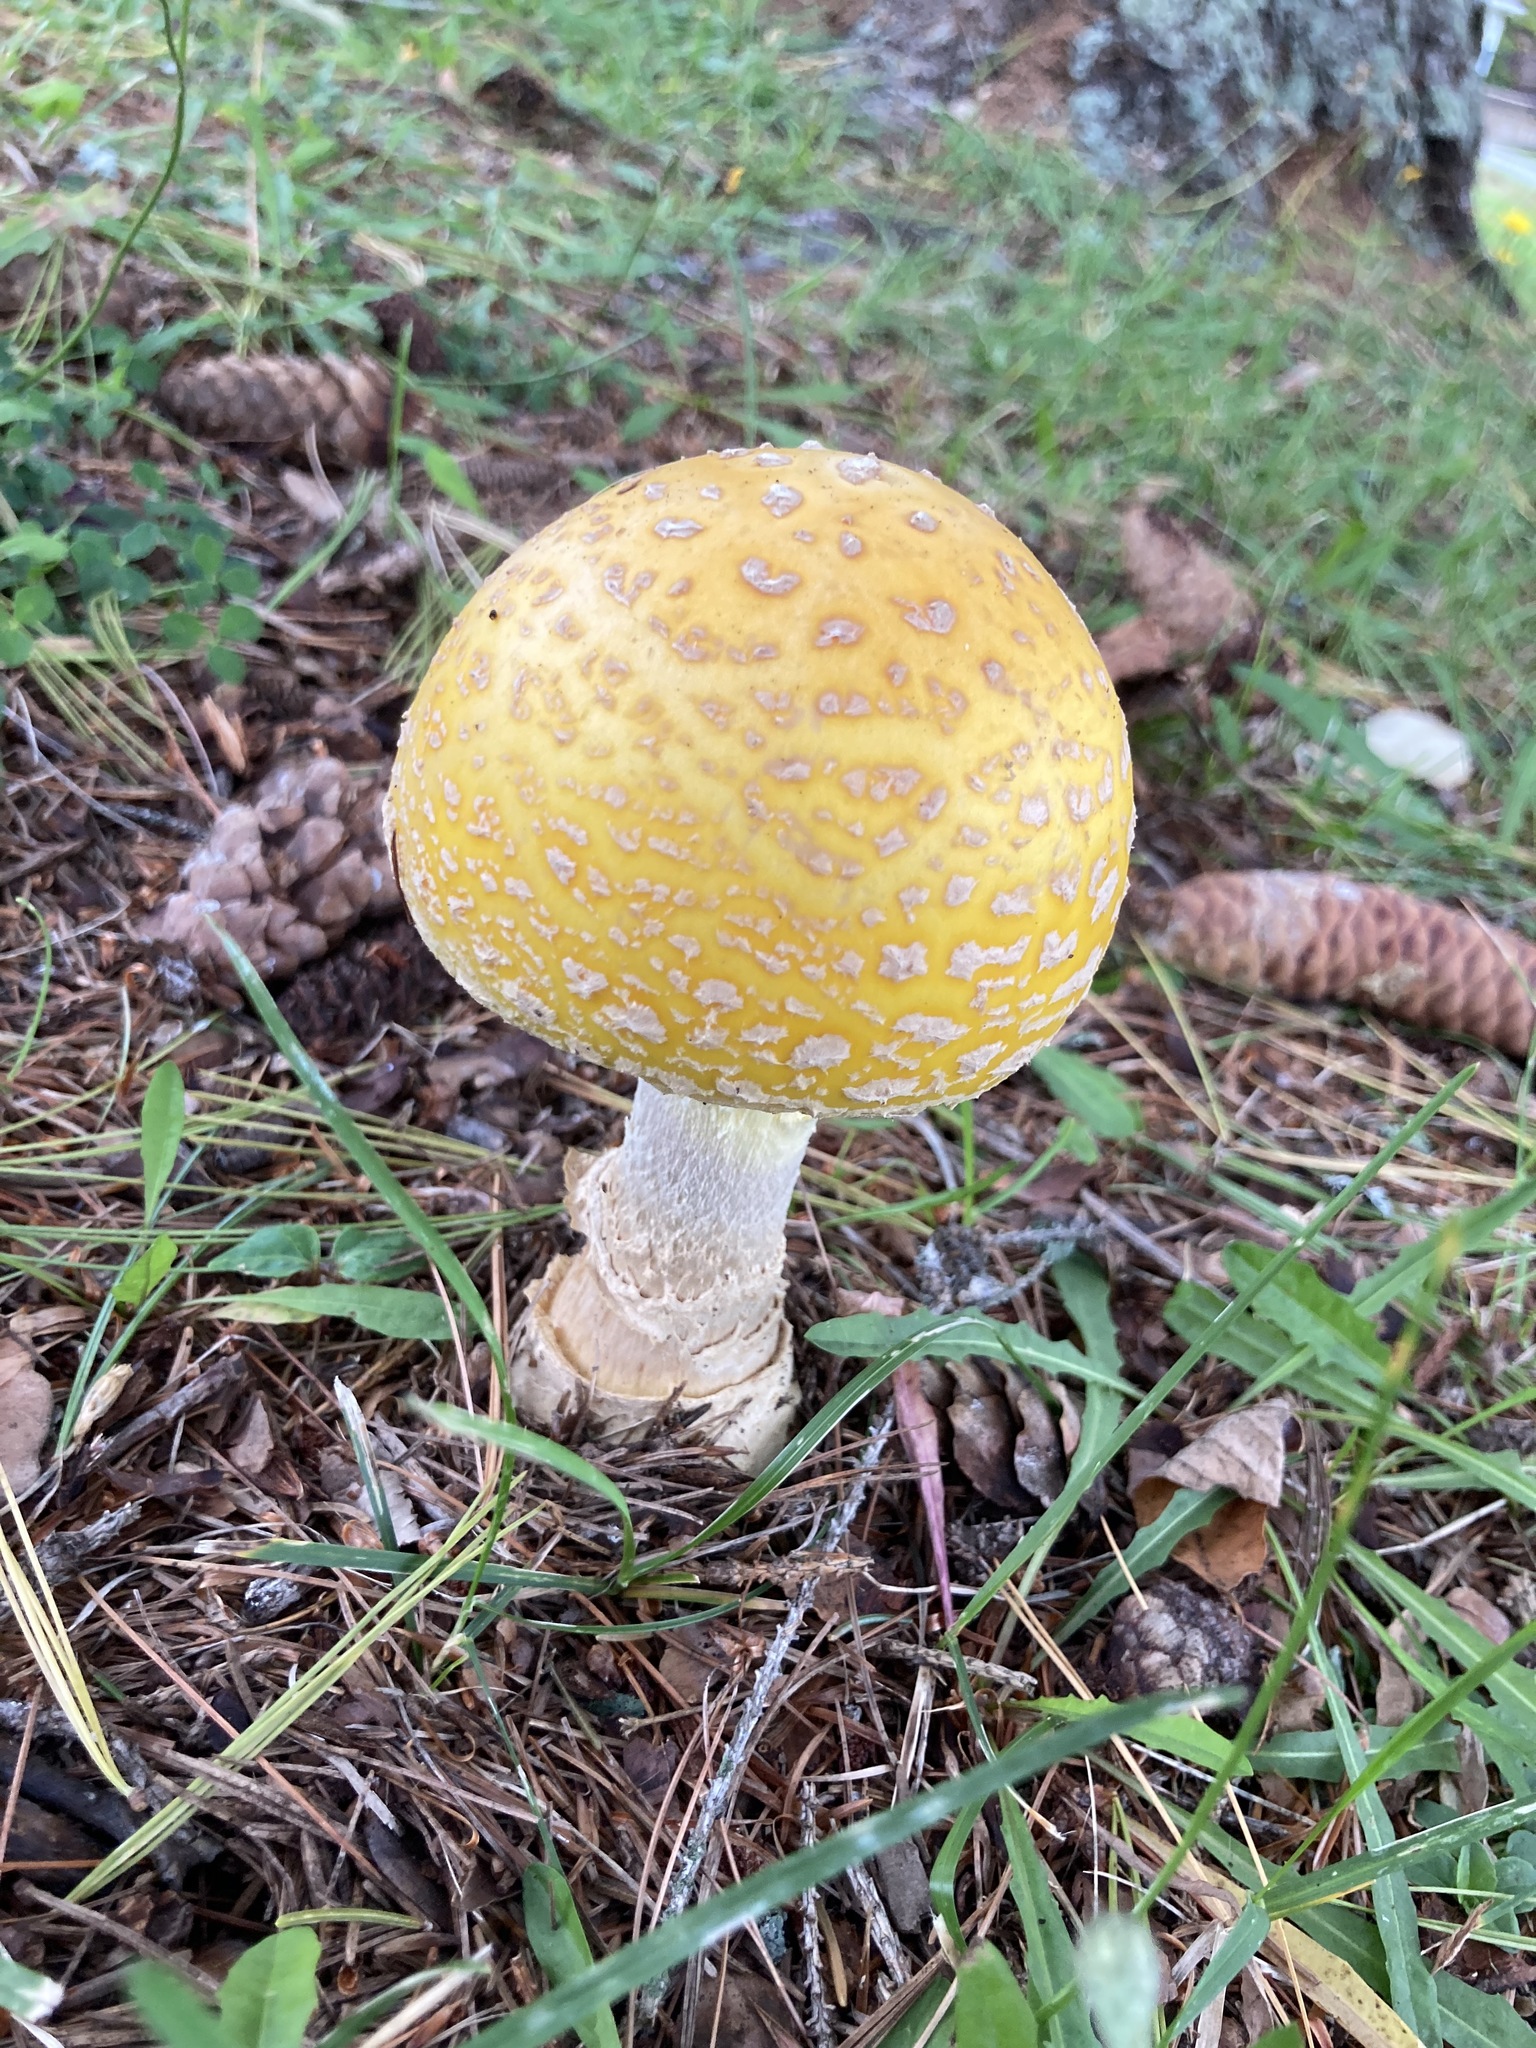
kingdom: Fungi
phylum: Basidiomycota
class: Agaricomycetes
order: Agaricales
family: Amanitaceae
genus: Amanita
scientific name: Amanita muscaria
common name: Fly agaric
